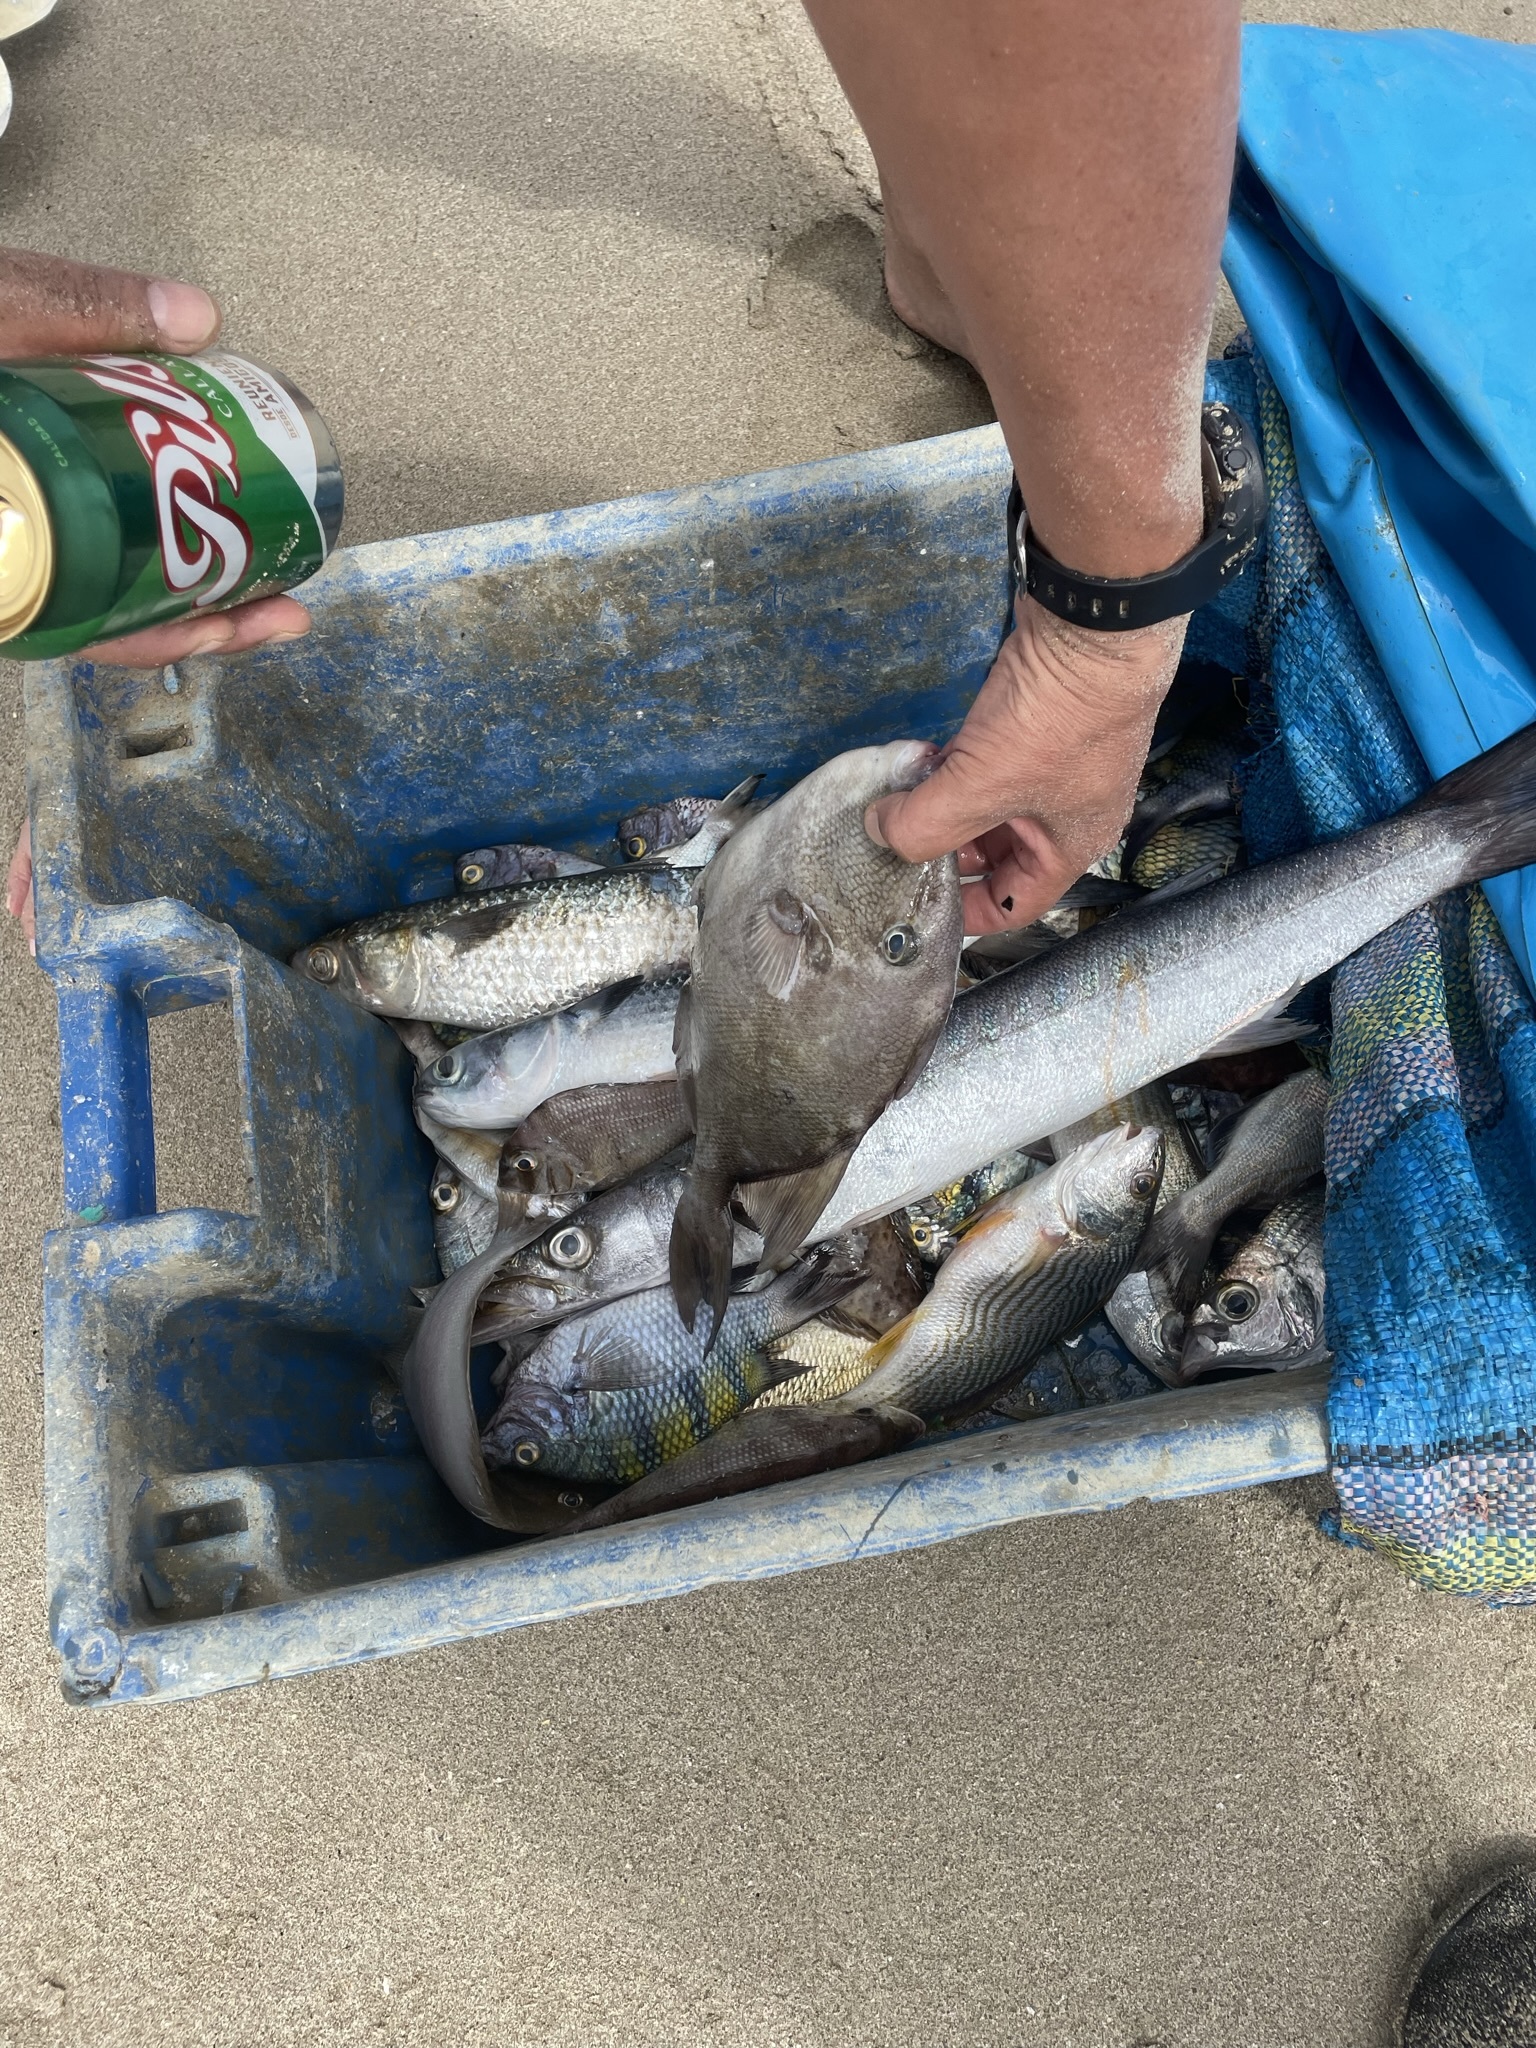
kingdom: Animalia
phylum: Chordata
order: Tetraodontiformes
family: Balistidae
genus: Balistes
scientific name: Balistes polylepis
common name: Finescale triggerfish
